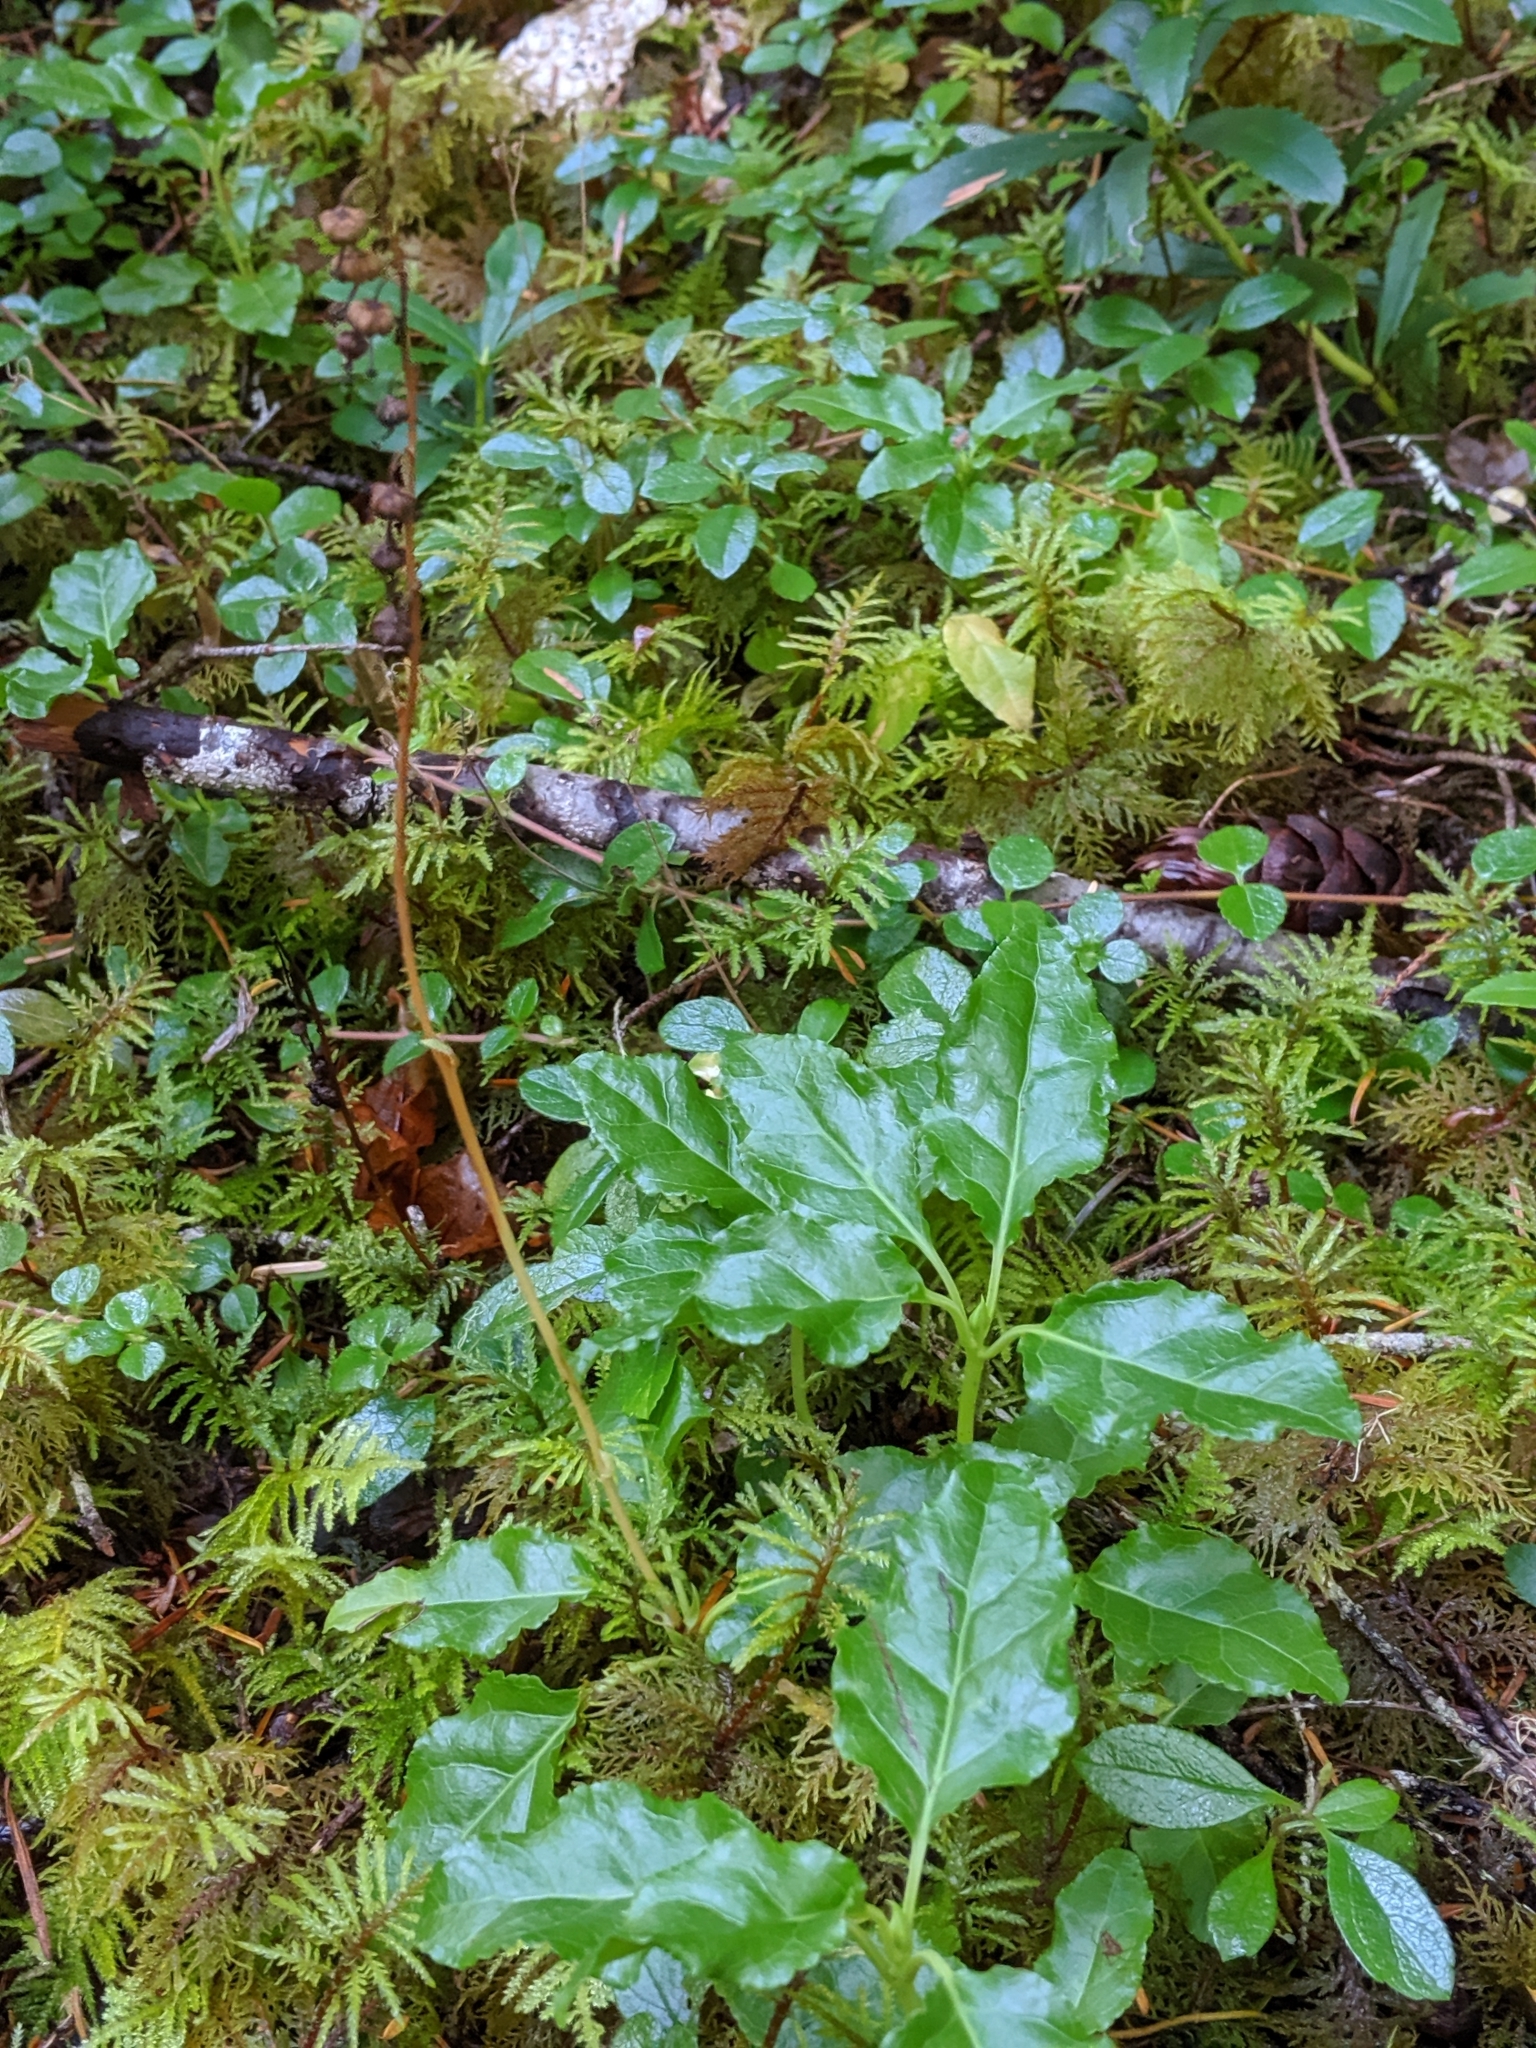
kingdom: Plantae
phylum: Tracheophyta
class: Magnoliopsida
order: Ericales
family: Ericaceae
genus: Orthilia
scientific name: Orthilia secunda
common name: One-sided orthilia
